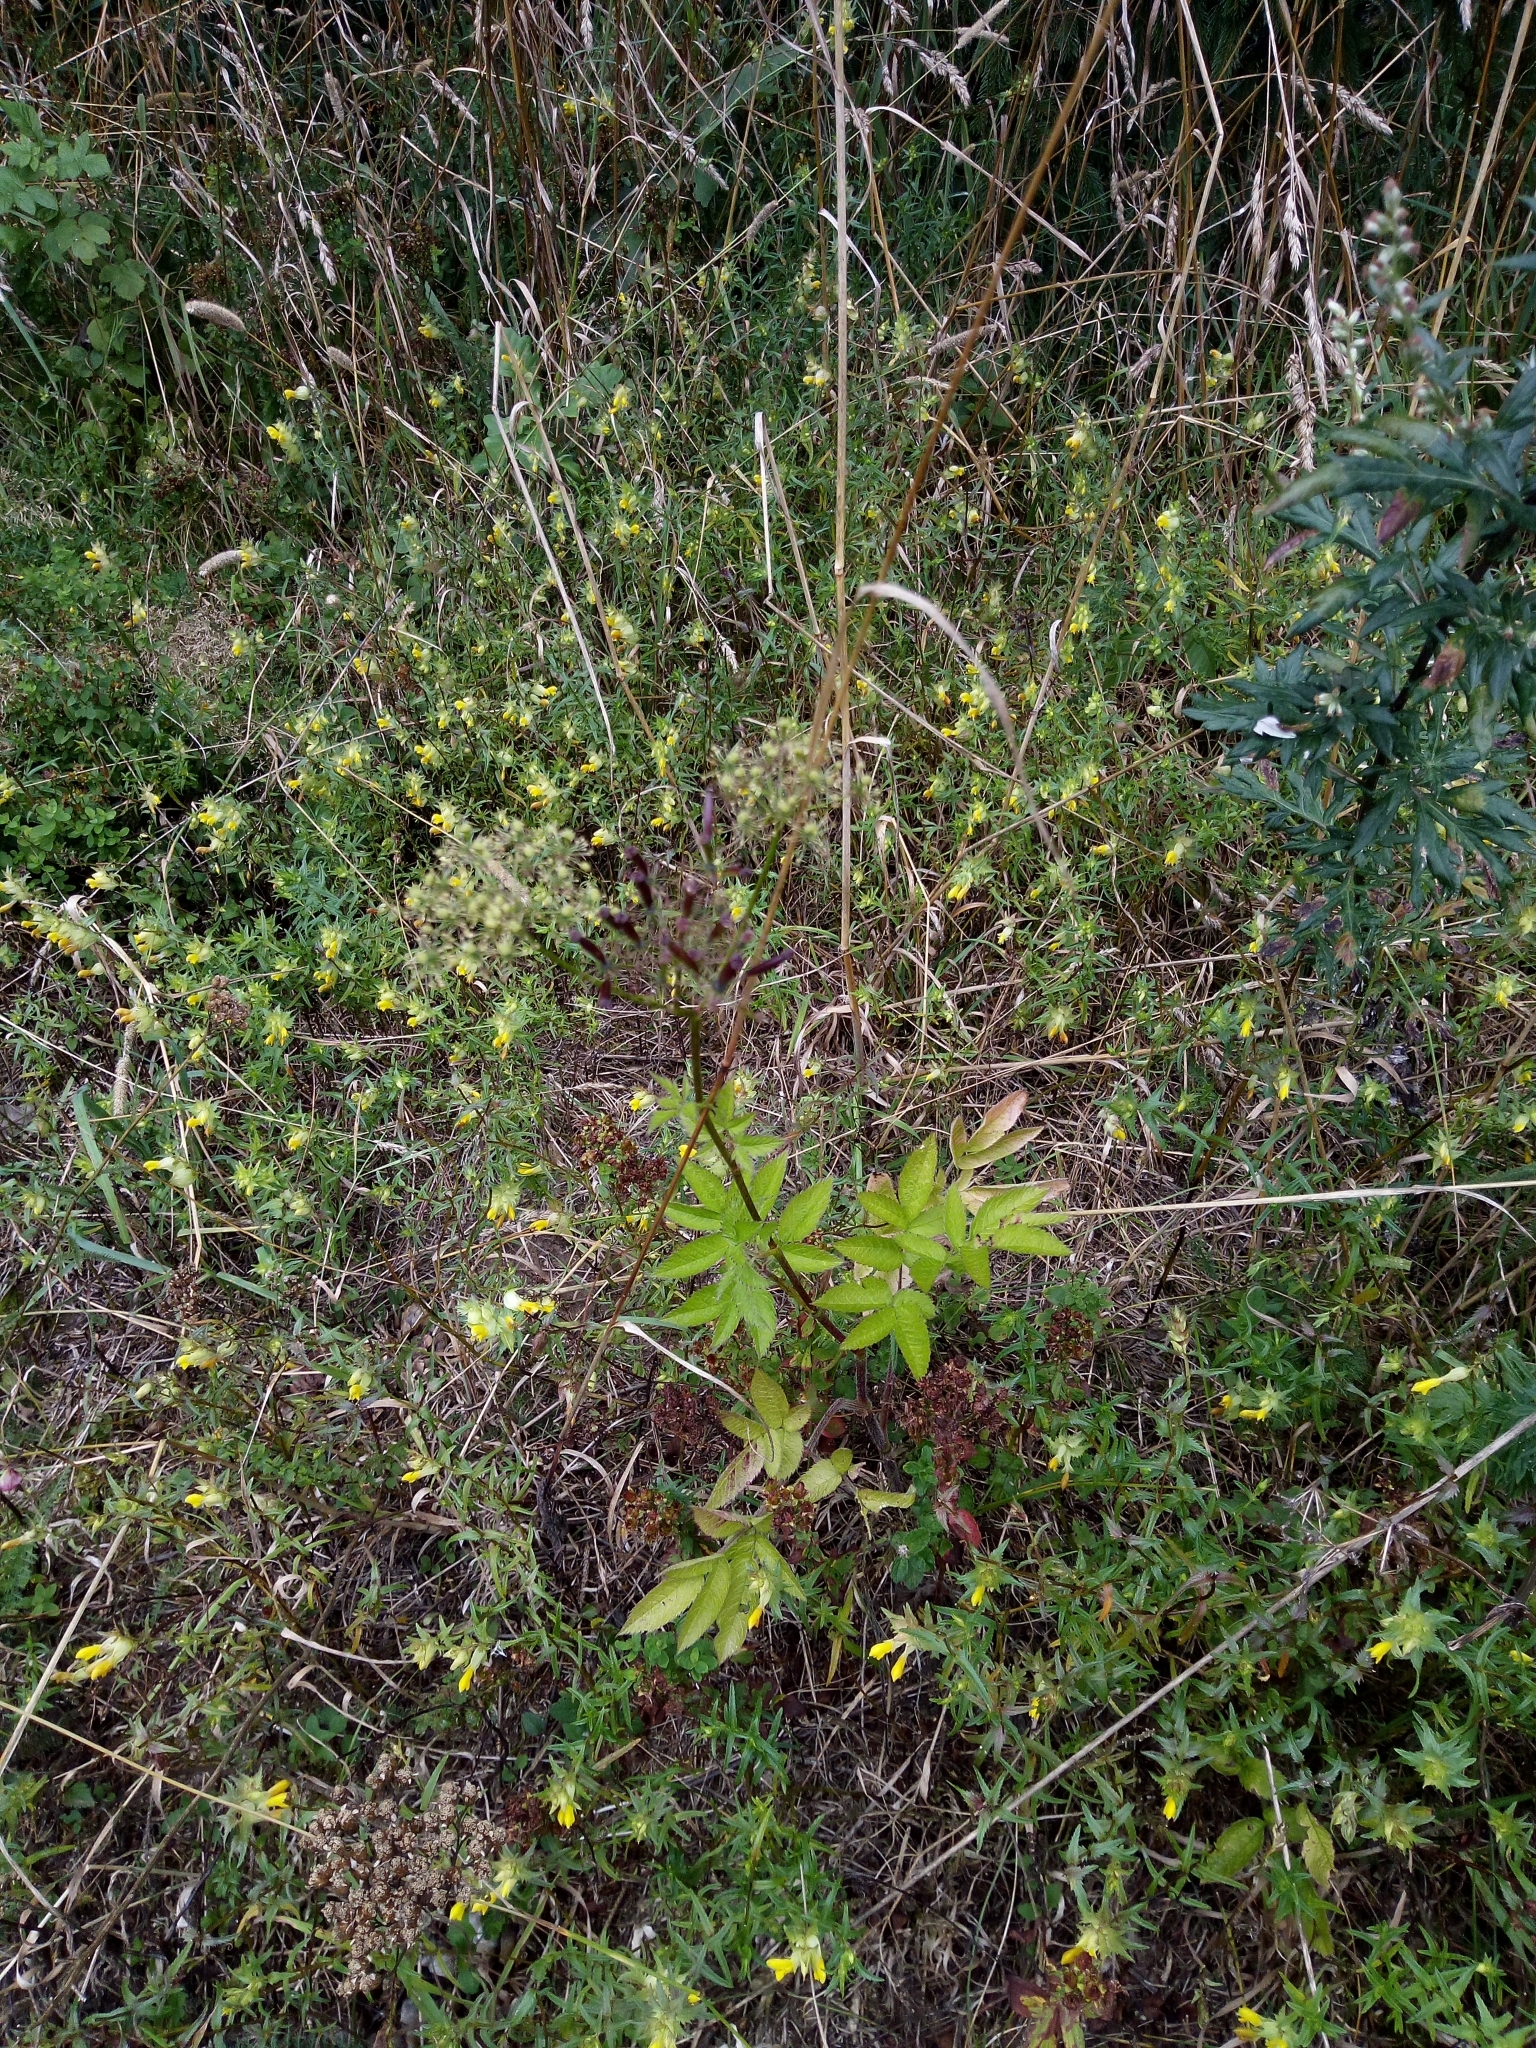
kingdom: Plantae
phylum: Tracheophyta
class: Magnoliopsida
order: Apiales
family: Apiaceae
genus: Chaerophyllum
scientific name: Chaerophyllum aromaticum
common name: Broadleaf chervil
